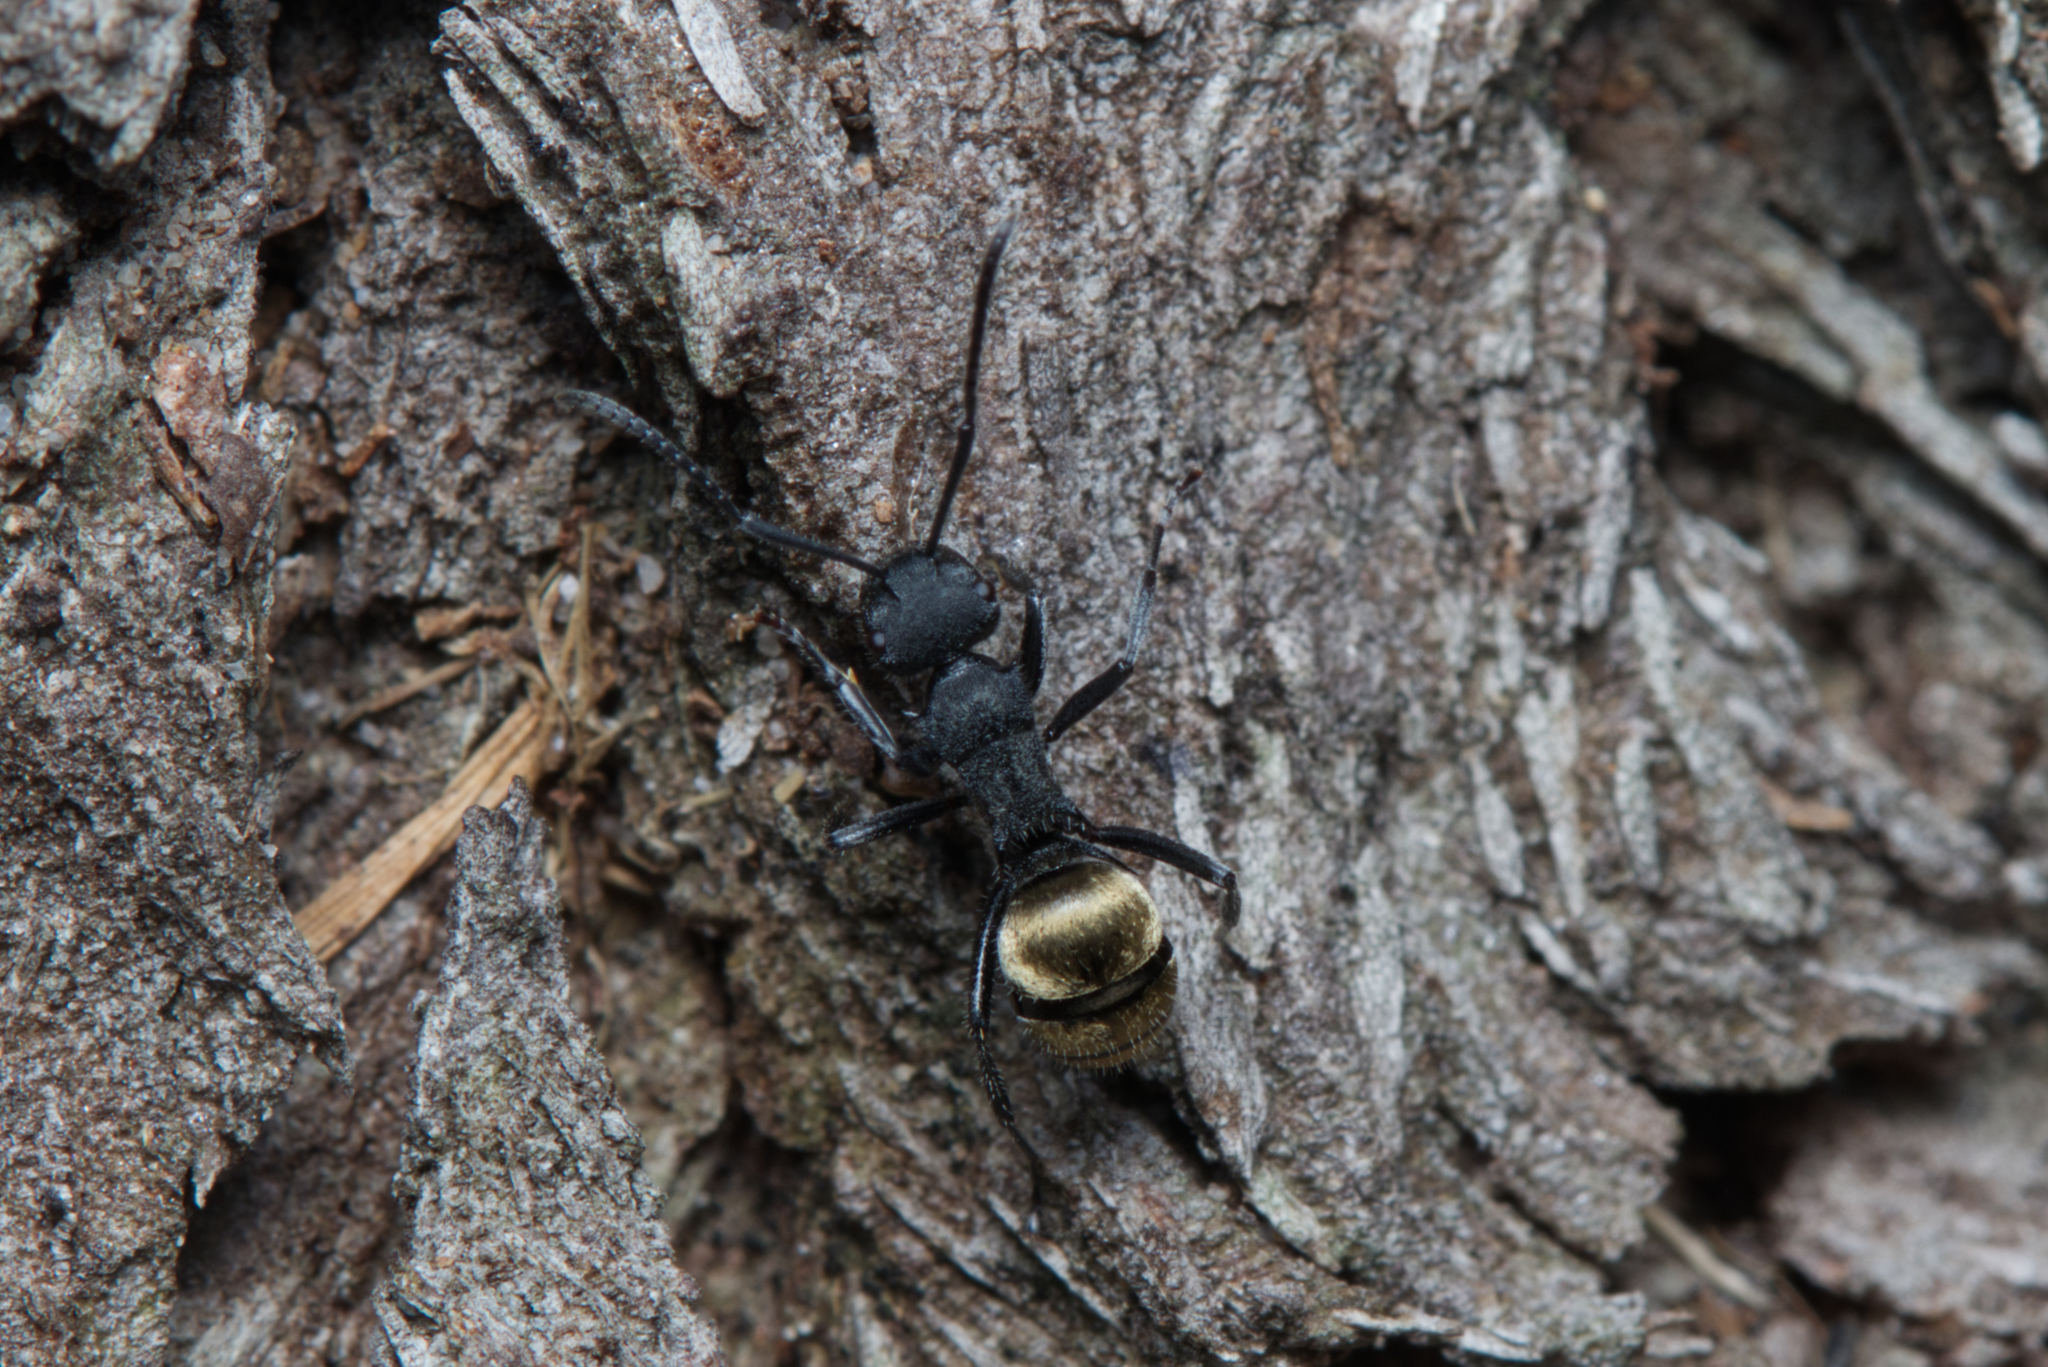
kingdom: Animalia
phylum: Arthropoda
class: Insecta
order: Hymenoptera
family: Formicidae
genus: Polyrhachis
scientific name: Polyrhachis erato
